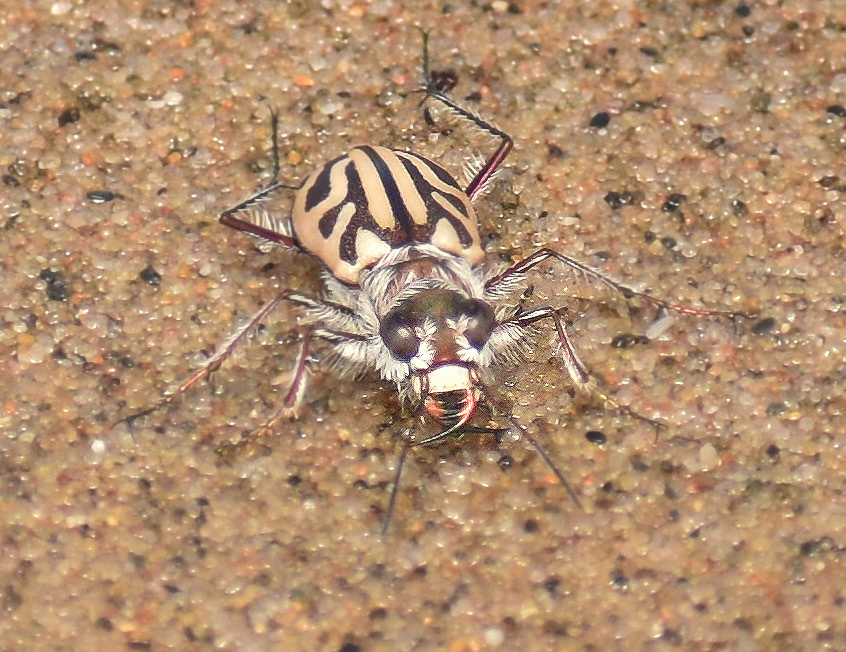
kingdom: Animalia
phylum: Arthropoda
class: Insecta
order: Coleoptera
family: Carabidae
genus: Habrodera
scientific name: Habrodera capensis
